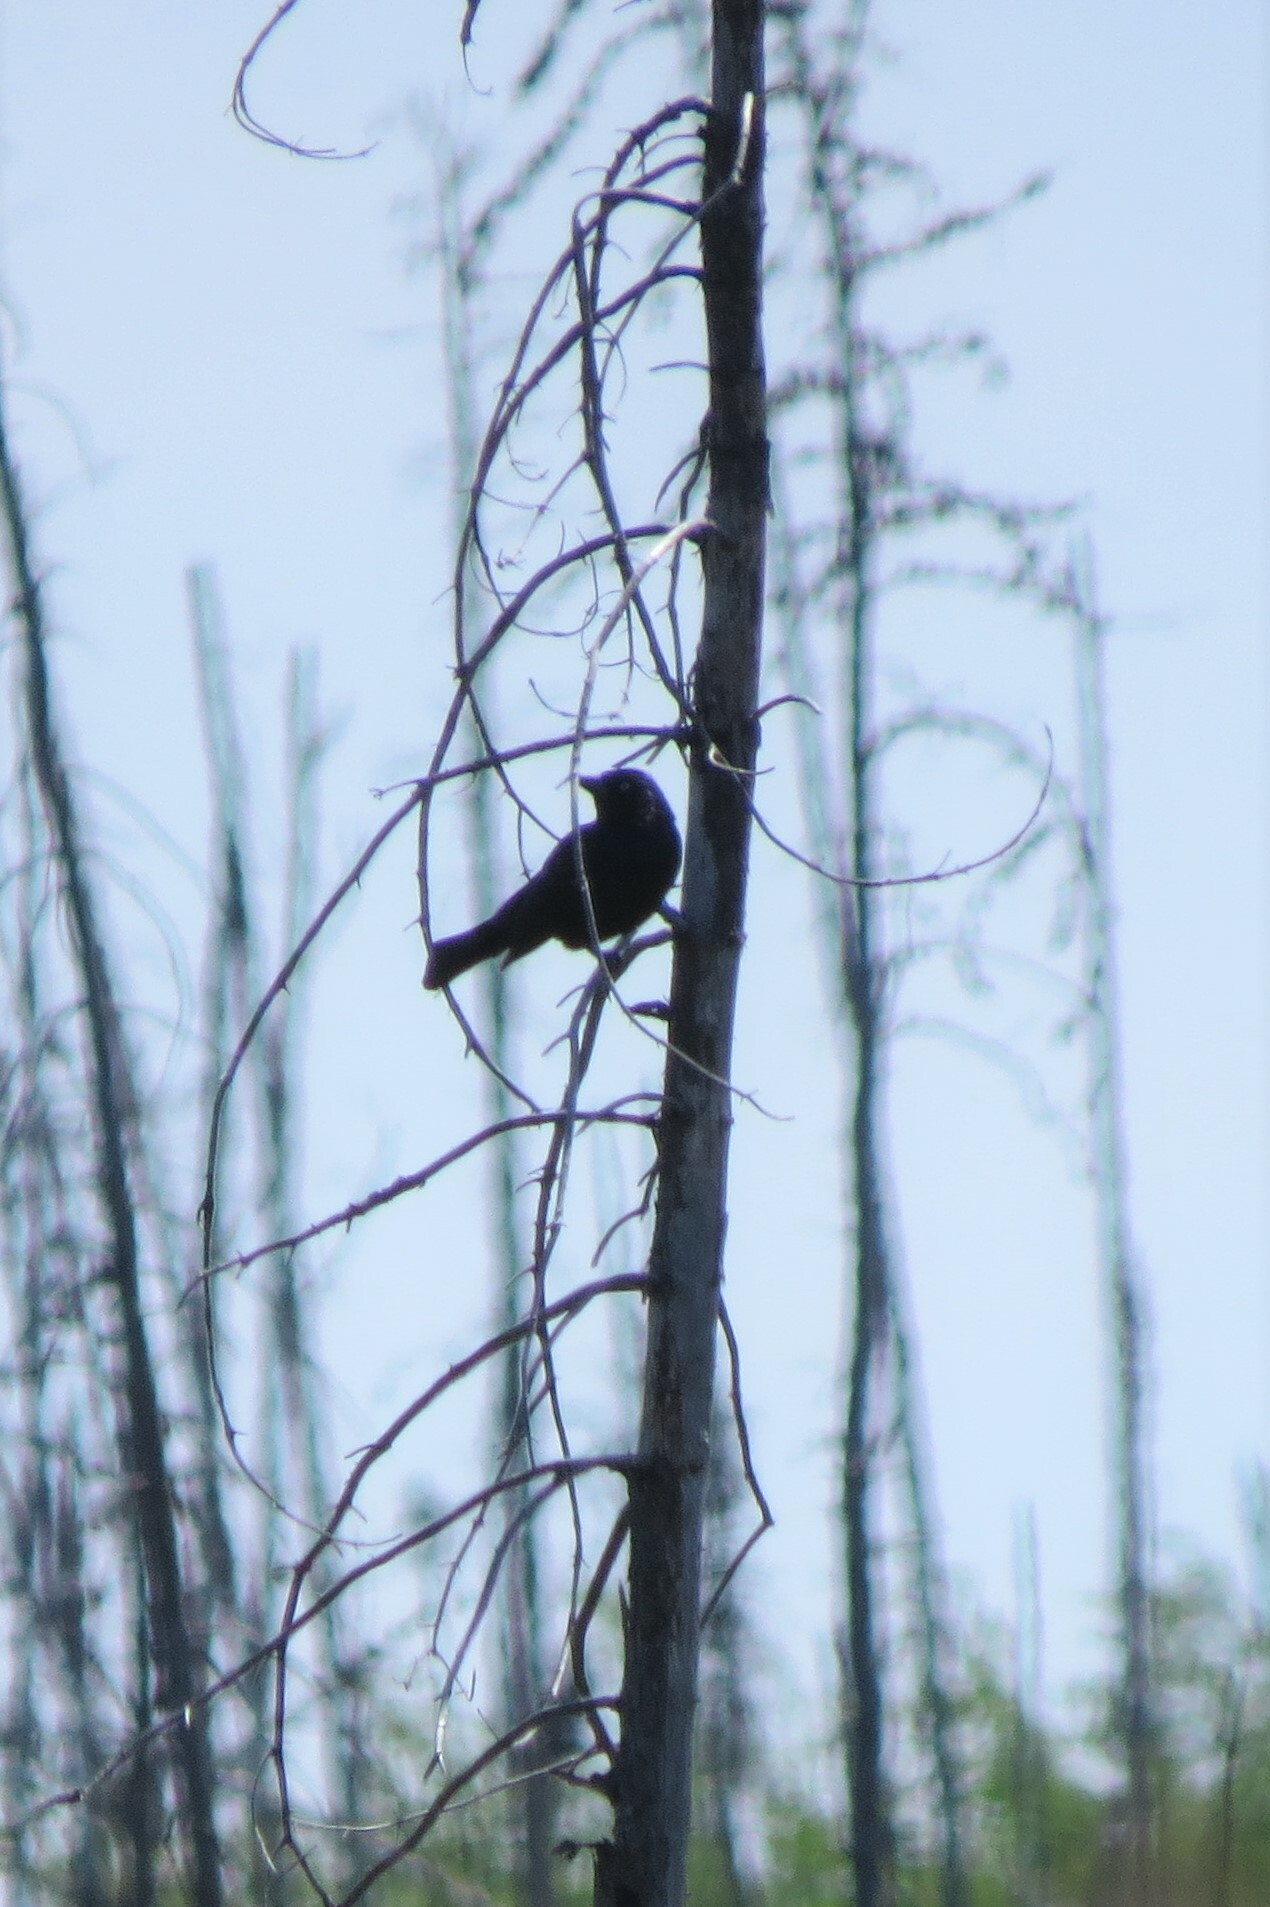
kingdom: Animalia
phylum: Chordata
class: Aves
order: Passeriformes
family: Icteridae
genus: Euphagus
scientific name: Euphagus carolinus
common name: Rusty blackbird
